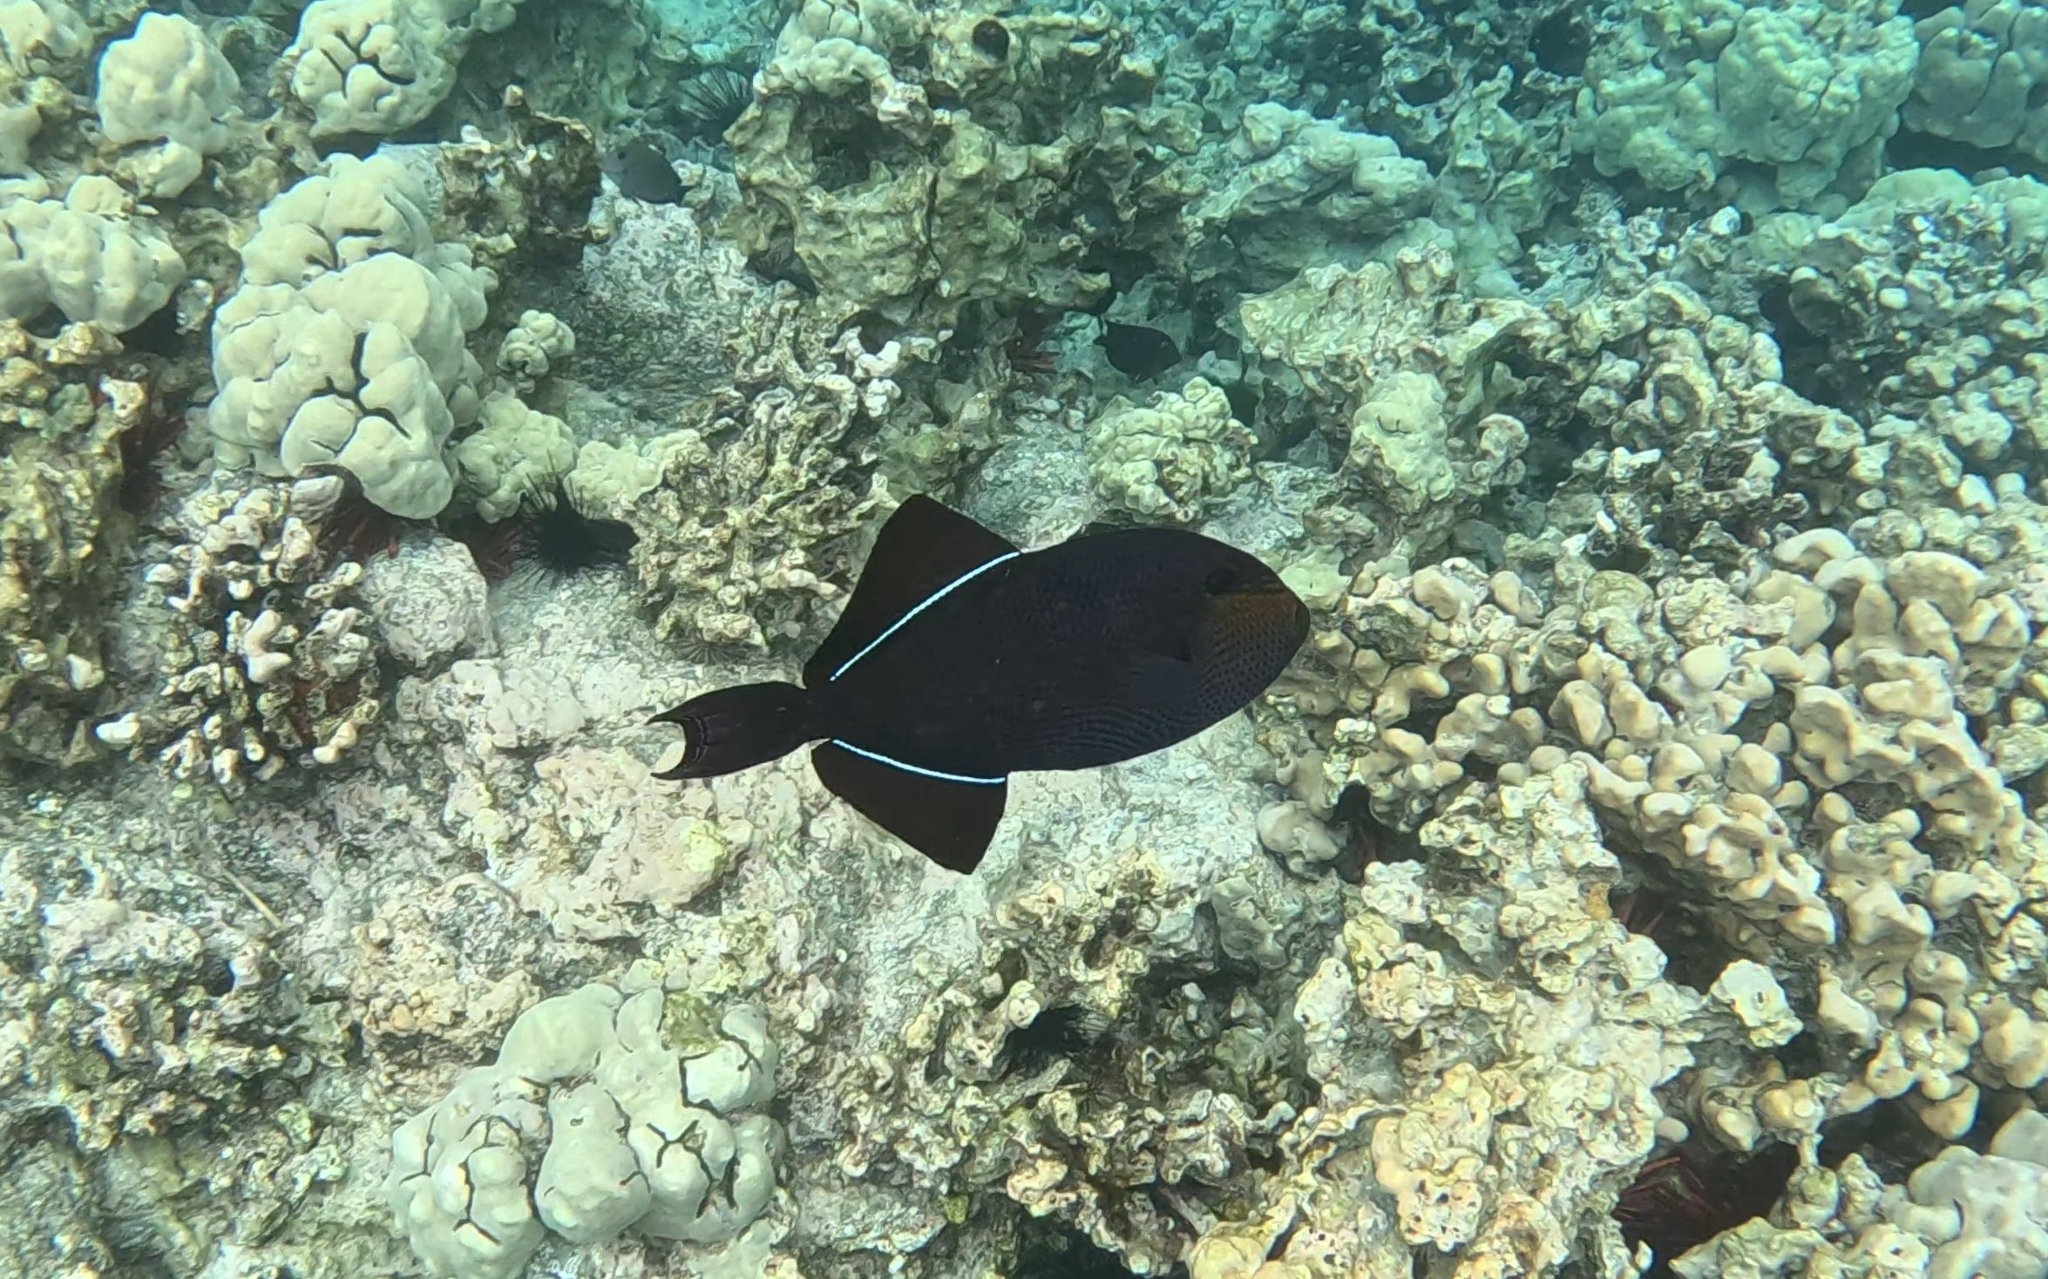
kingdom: Animalia
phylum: Chordata
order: Tetraodontiformes
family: Balistidae
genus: Melichthys
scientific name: Melichthys niger
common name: Black durgon
